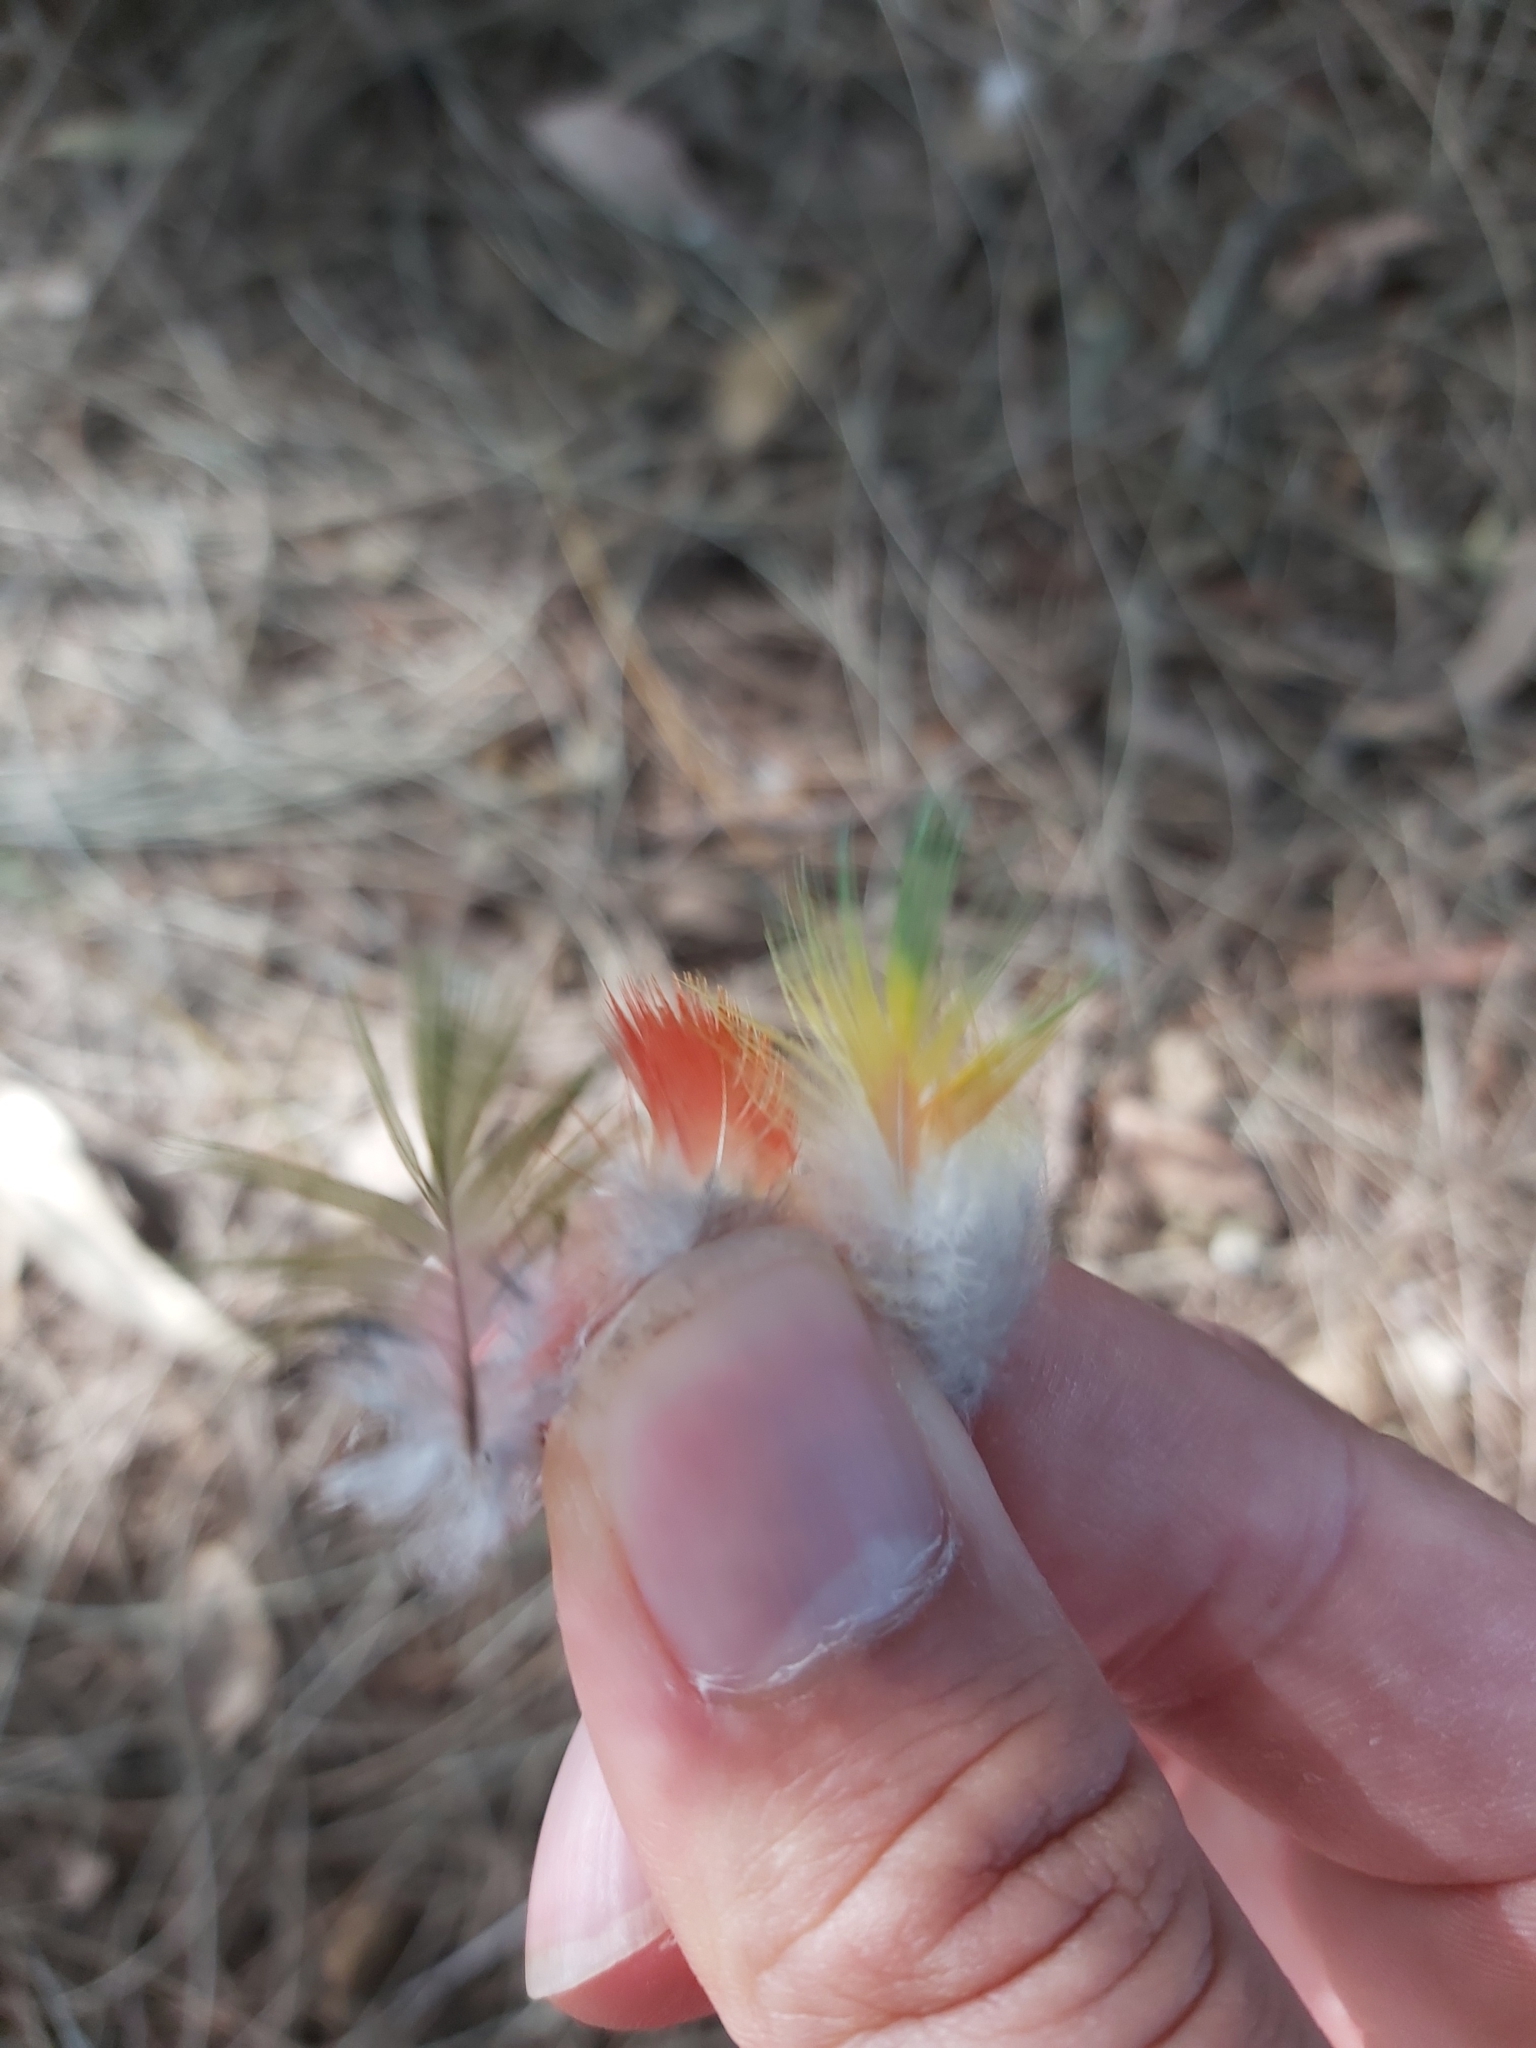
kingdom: Animalia
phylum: Chordata
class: Aves
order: Psittaciformes
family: Psittacidae
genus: Trichoglossus
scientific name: Trichoglossus haematodus
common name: Coconut lorikeet
